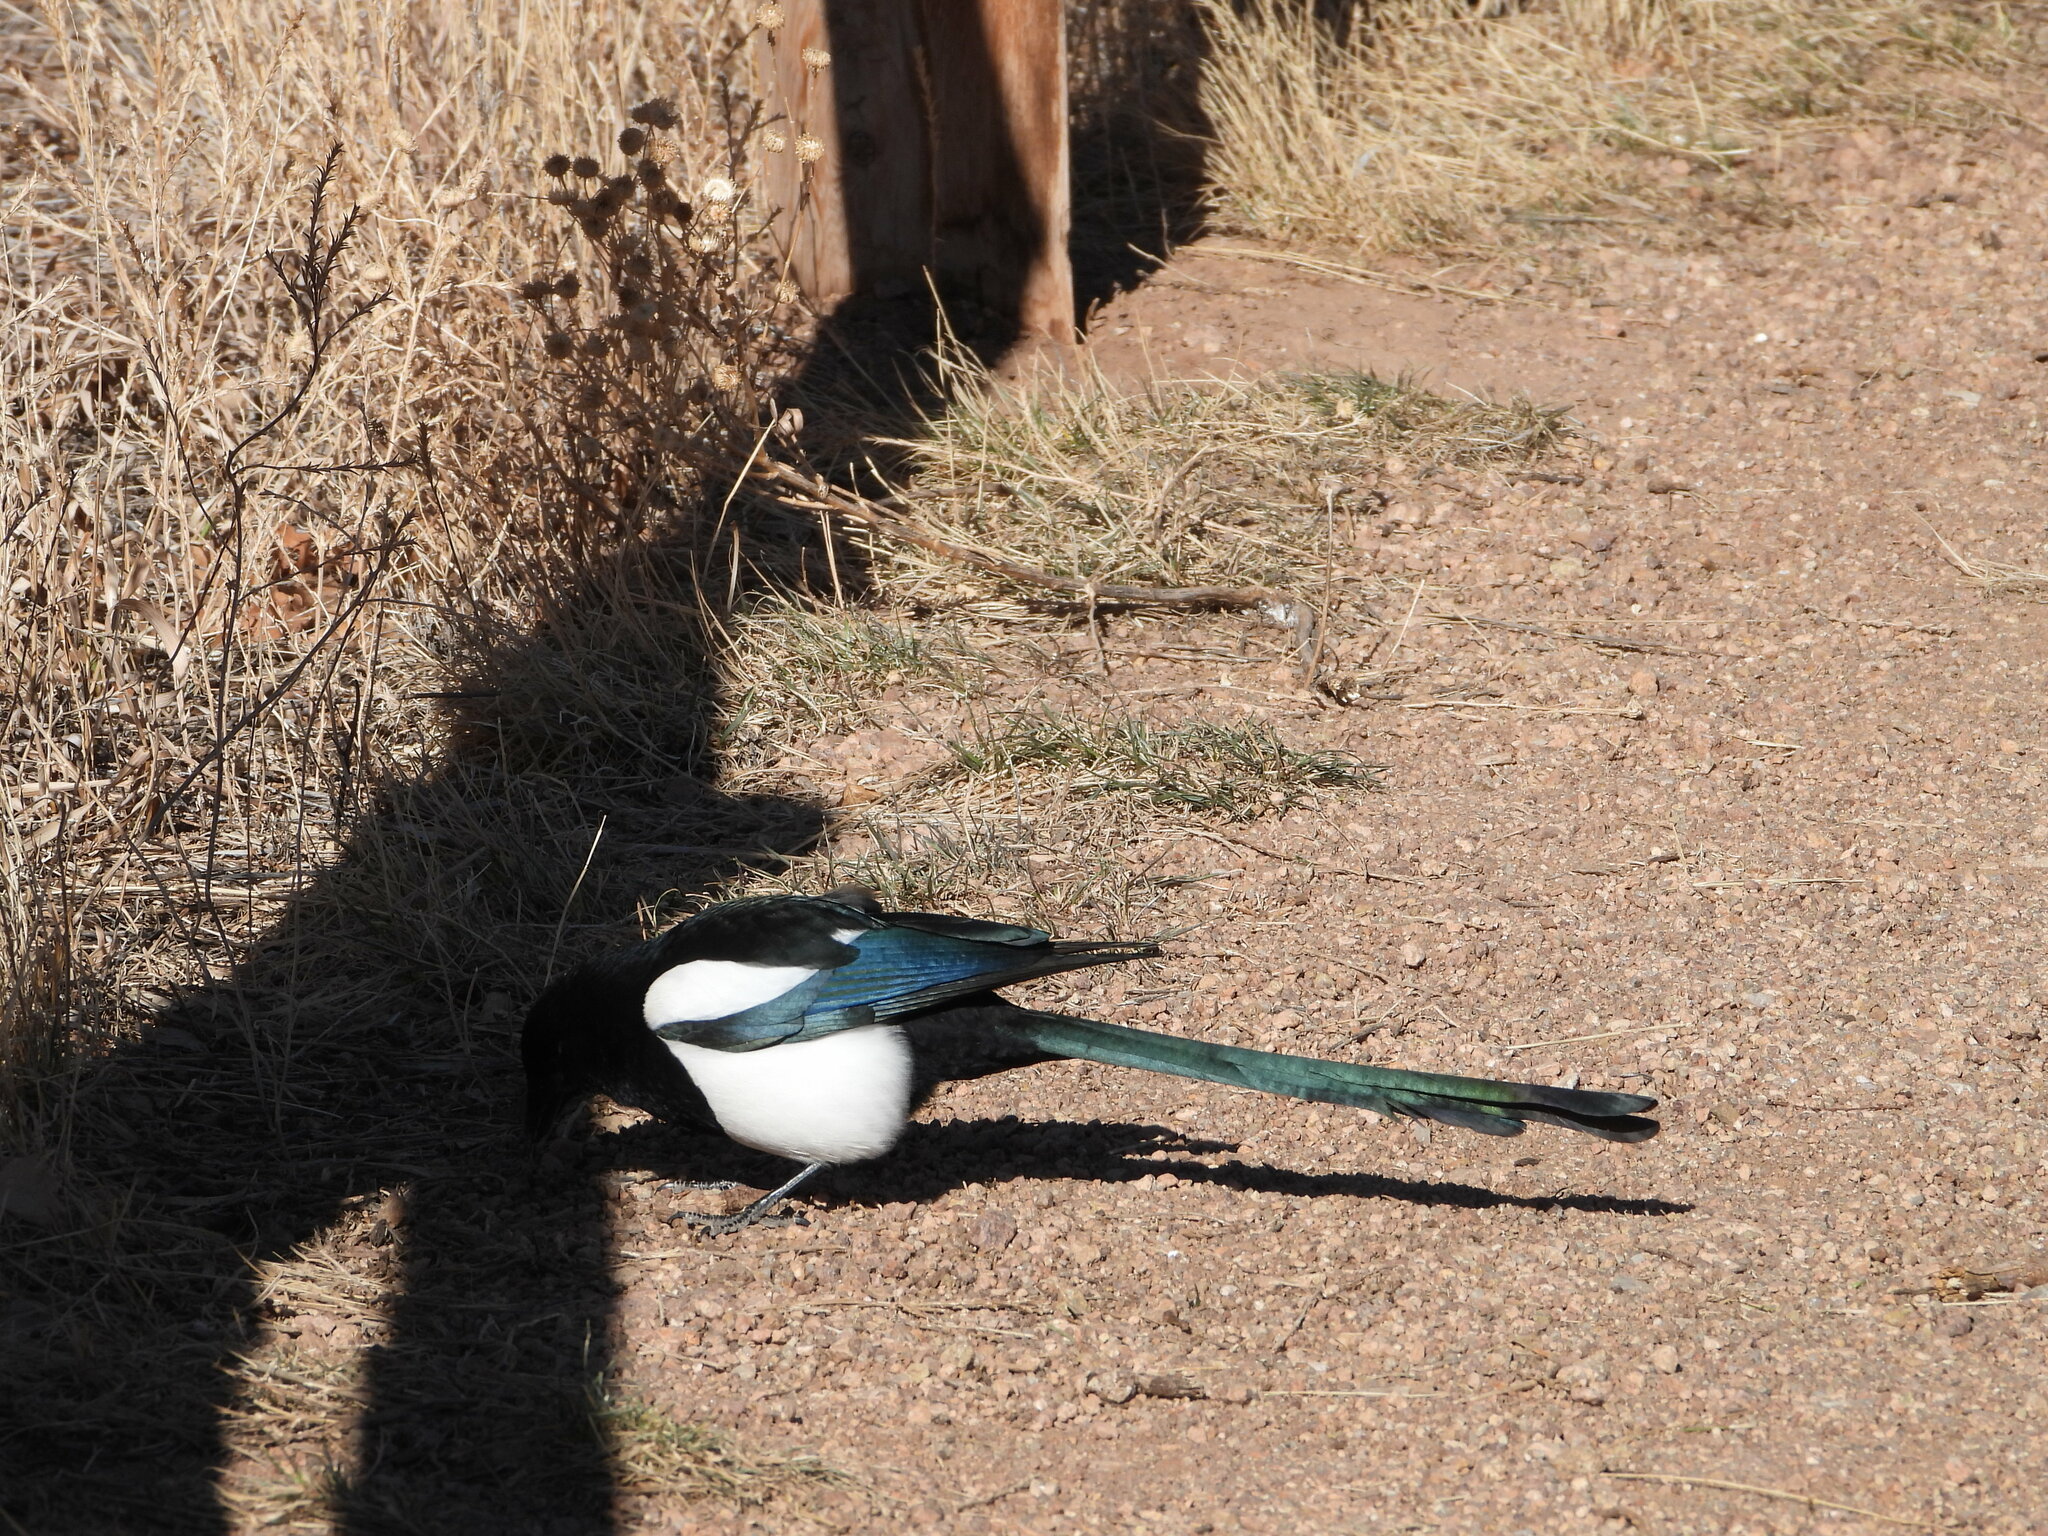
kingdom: Animalia
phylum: Chordata
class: Aves
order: Passeriformes
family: Corvidae
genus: Pica
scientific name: Pica hudsonia
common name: Black-billed magpie
